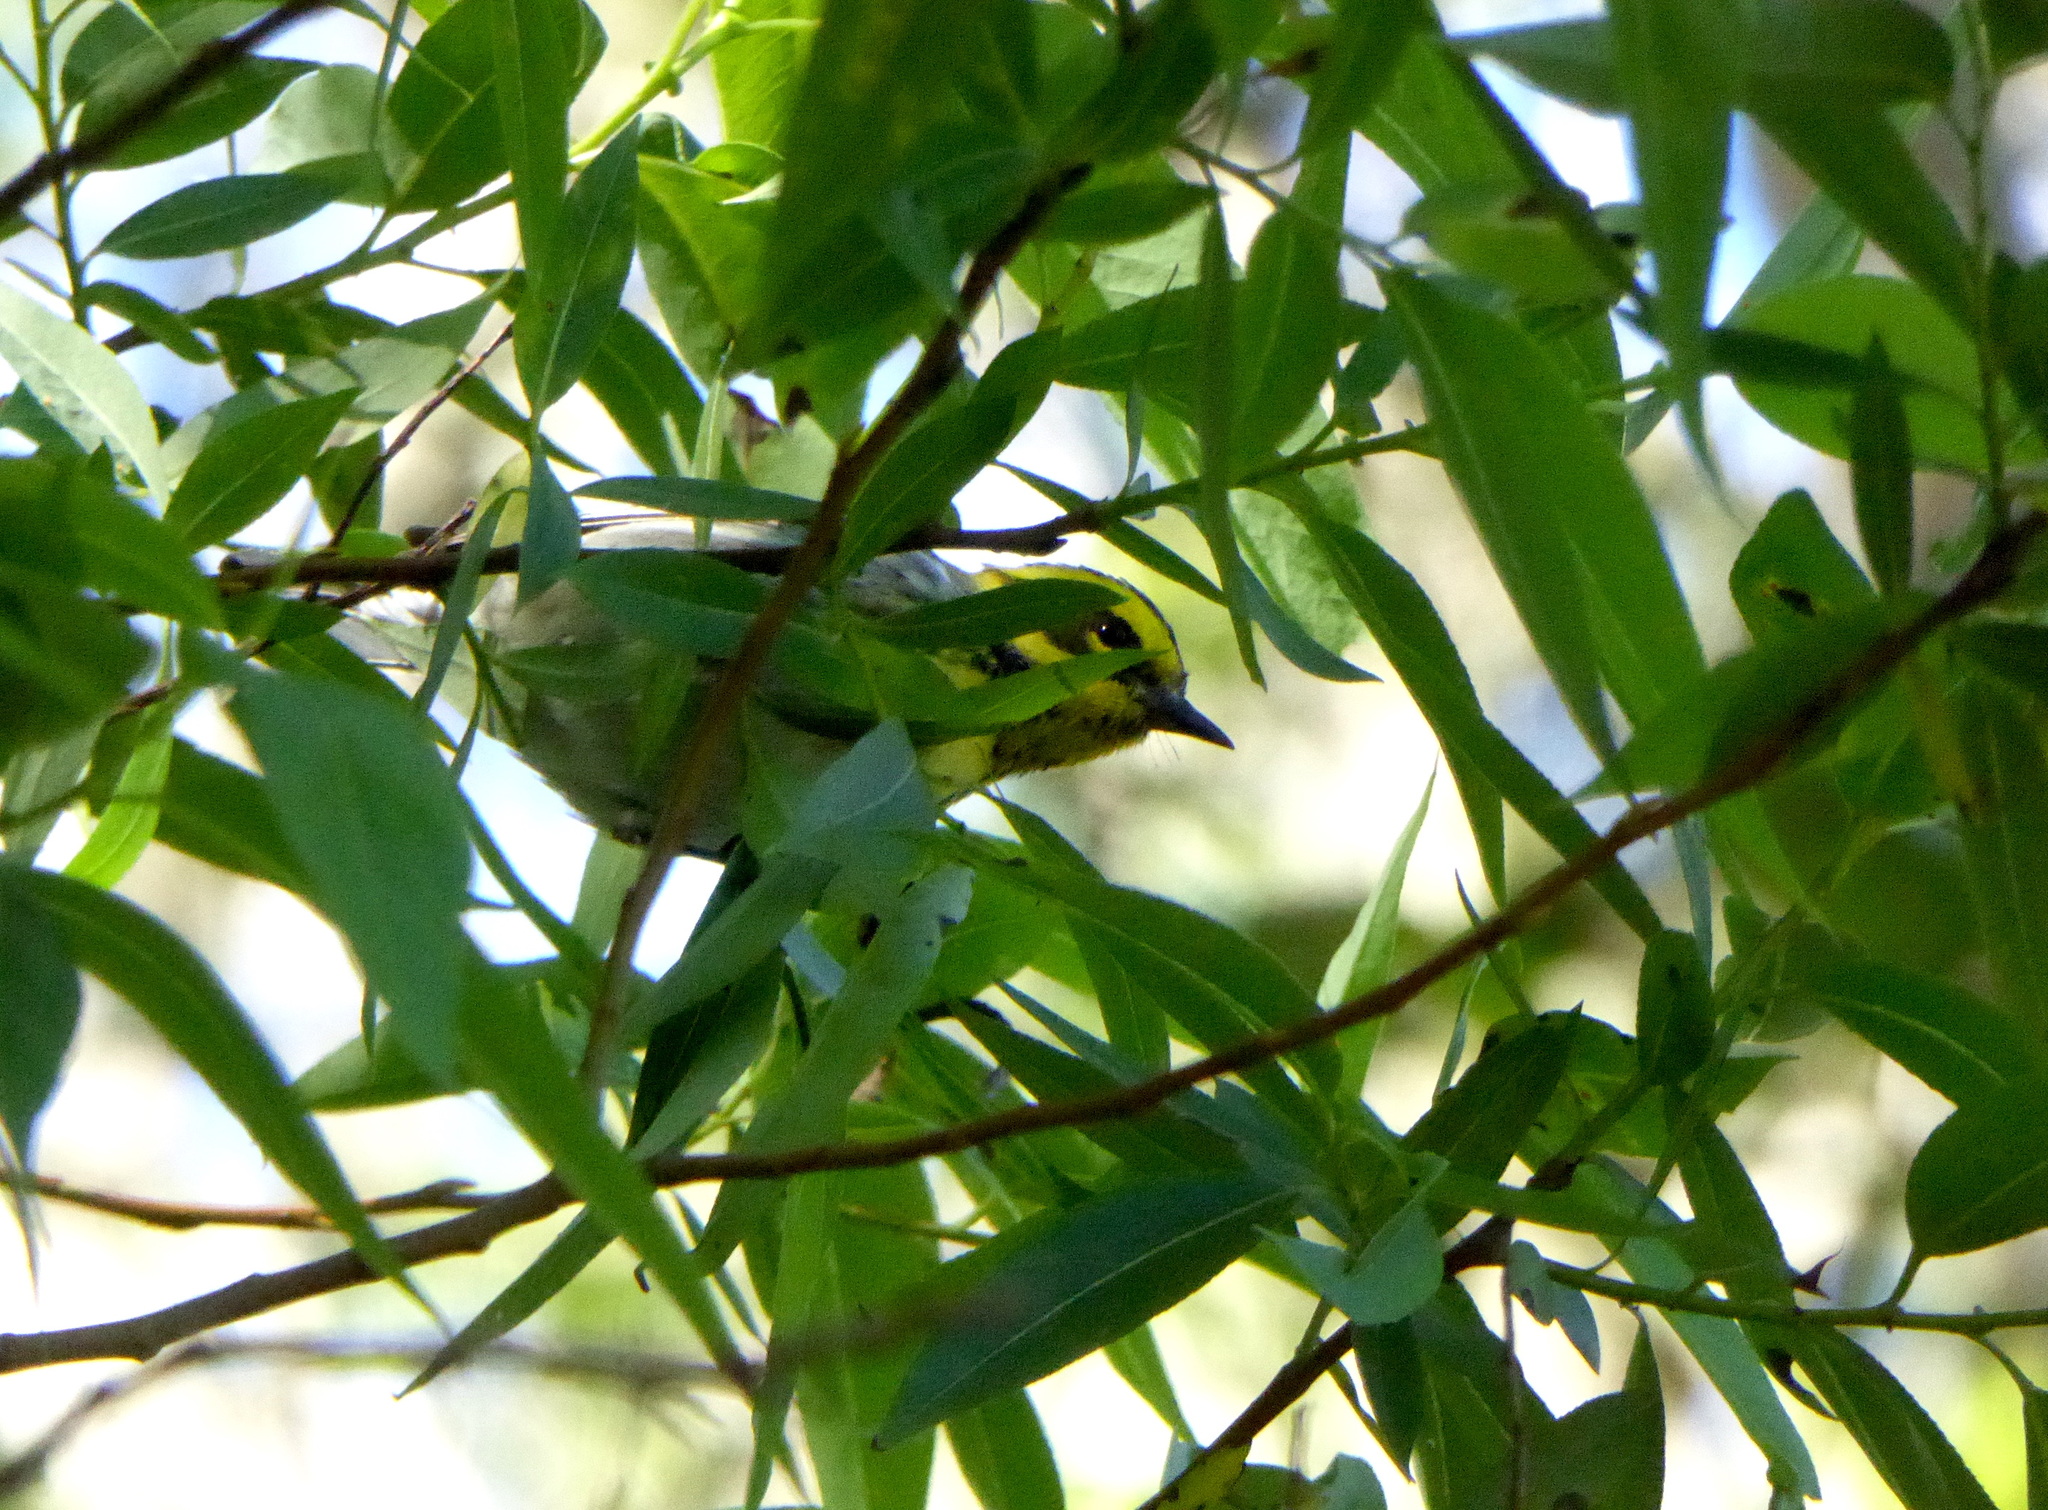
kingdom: Animalia
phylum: Chordata
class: Aves
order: Passeriformes
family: Parulidae
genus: Setophaga
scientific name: Setophaga townsendi
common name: Townsend's warbler
